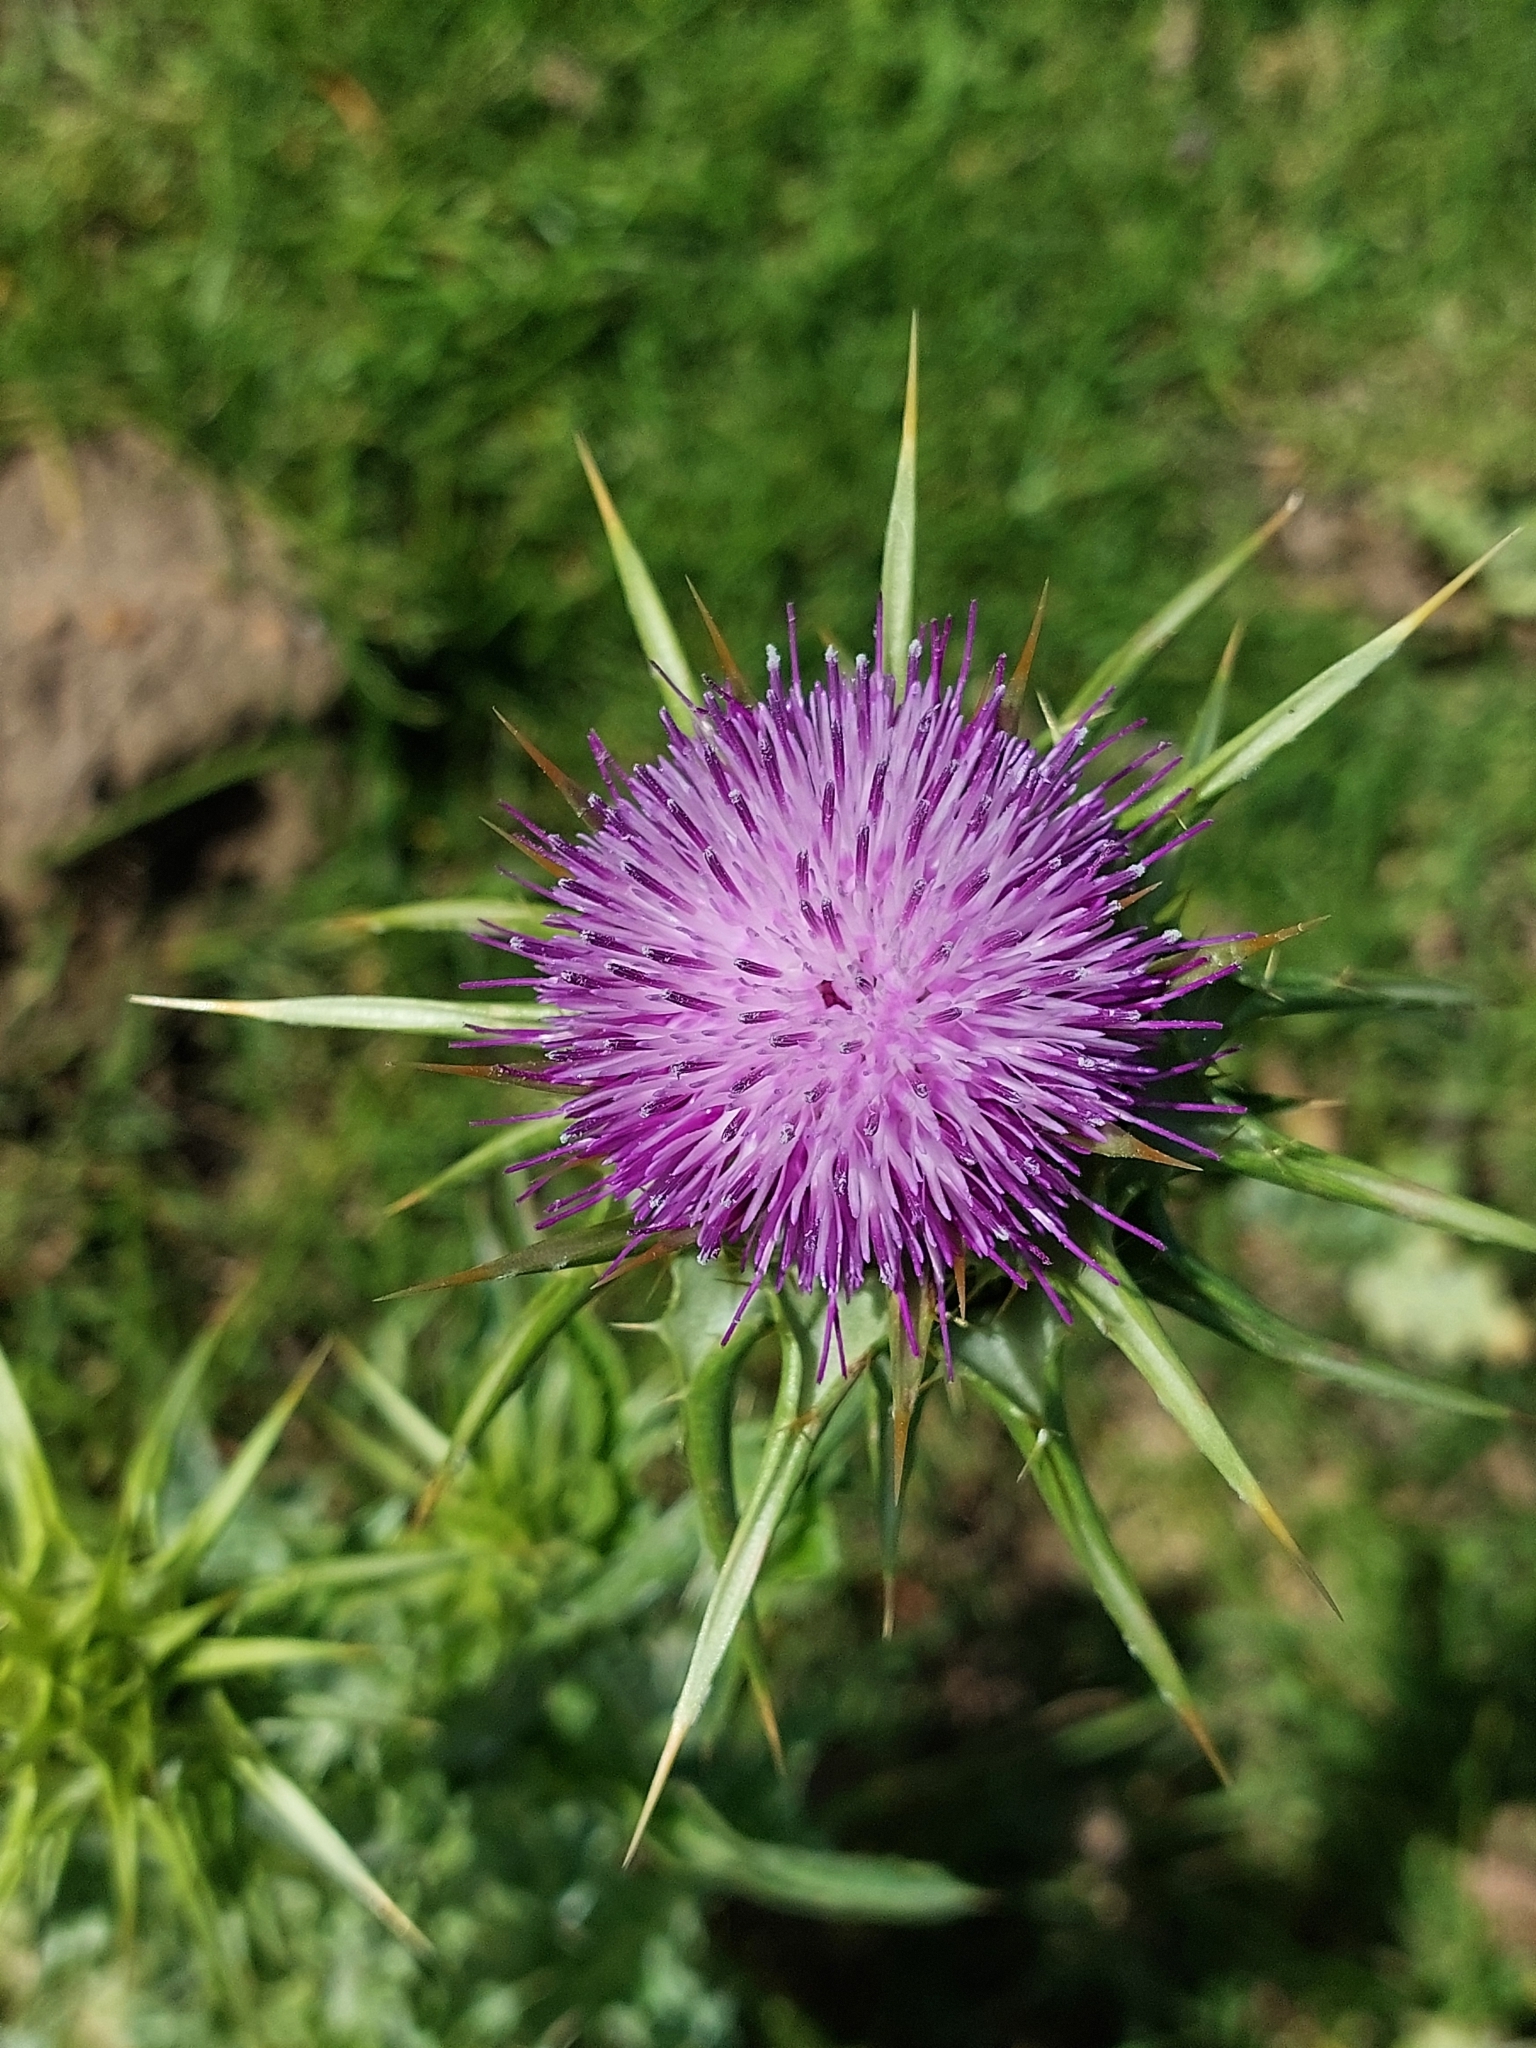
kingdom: Plantae
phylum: Tracheophyta
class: Magnoliopsida
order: Asterales
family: Asteraceae
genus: Silybum
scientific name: Silybum marianum
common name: Milk thistle
